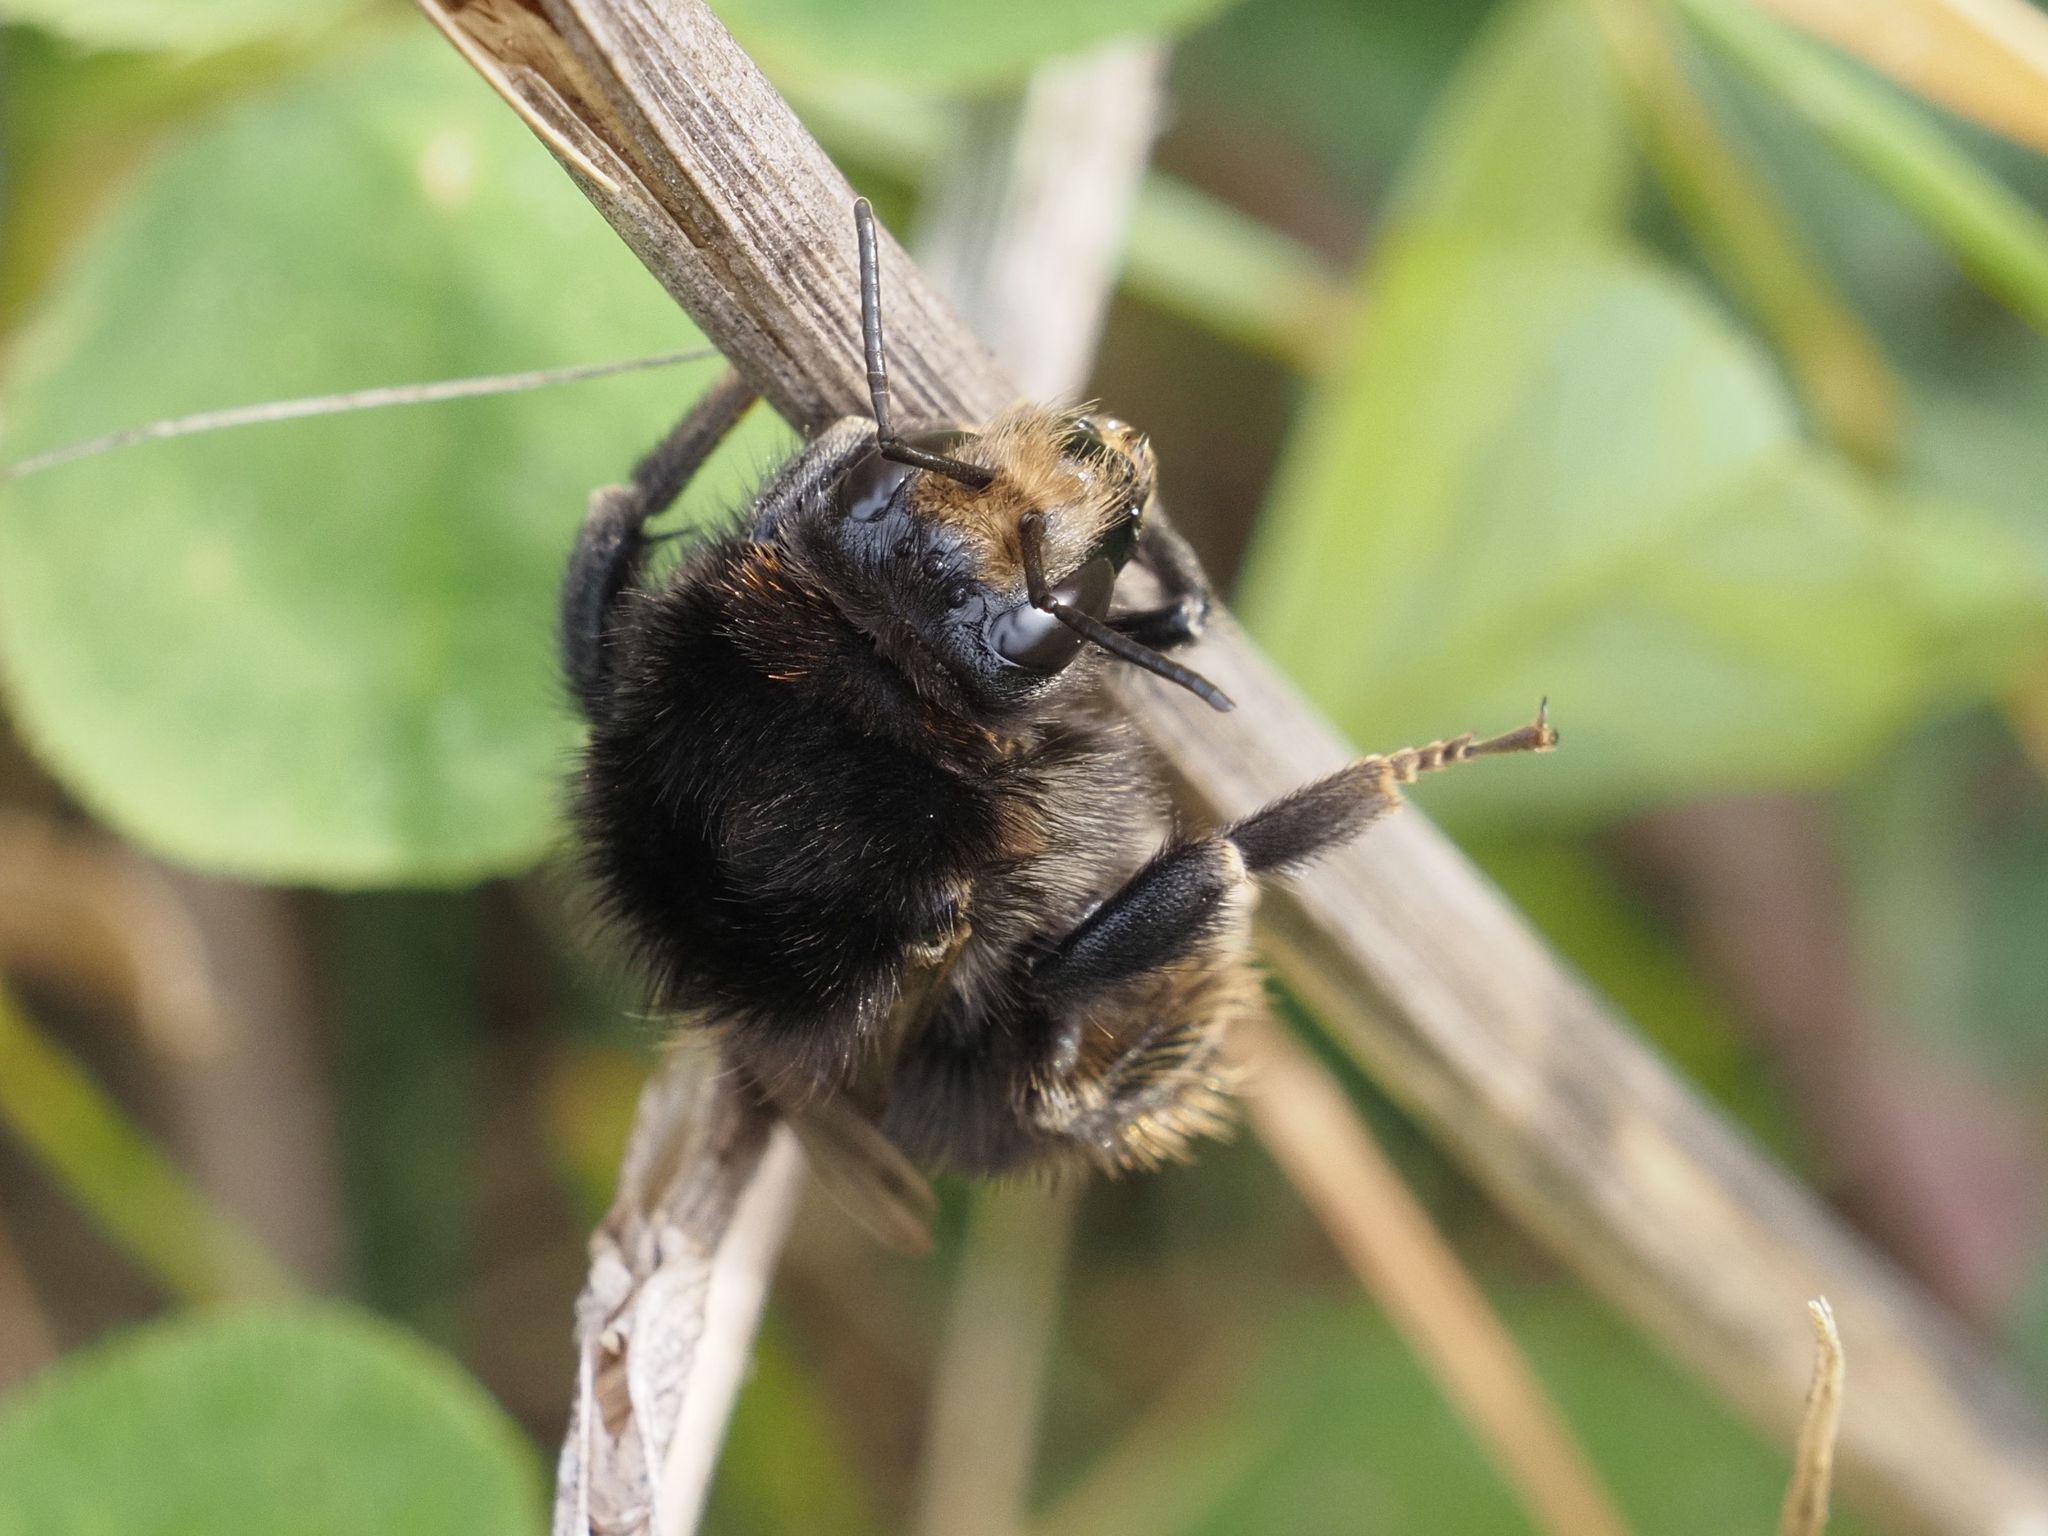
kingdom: Animalia
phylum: Arthropoda
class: Insecta
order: Hymenoptera
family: Apidae
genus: Bombus
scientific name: Bombus humilis
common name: Brown-banded carder-bee
